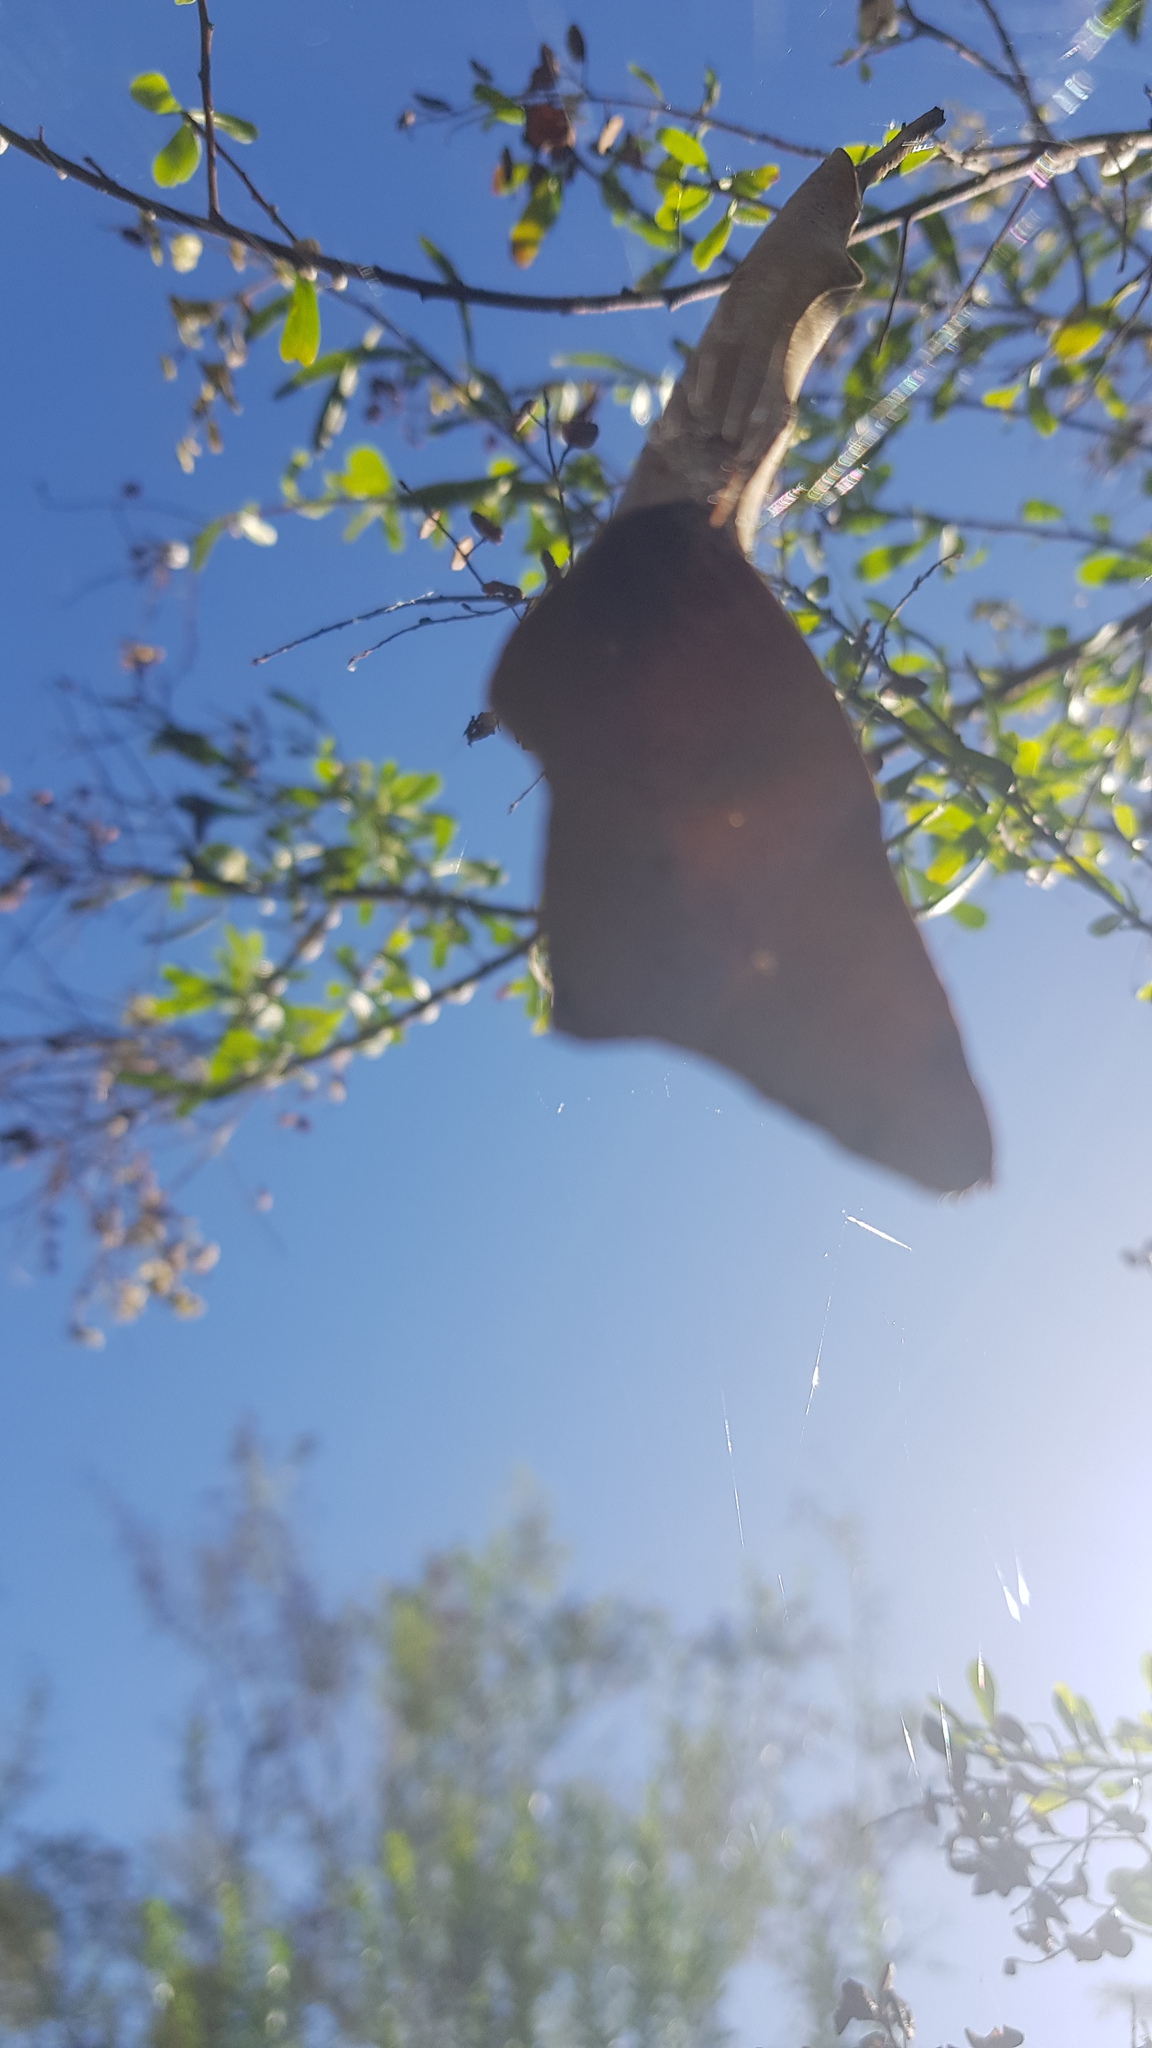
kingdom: Animalia
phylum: Arthropoda
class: Arachnida
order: Araneae
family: Araneidae
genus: Phonognatha
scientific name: Phonognatha graeffei
